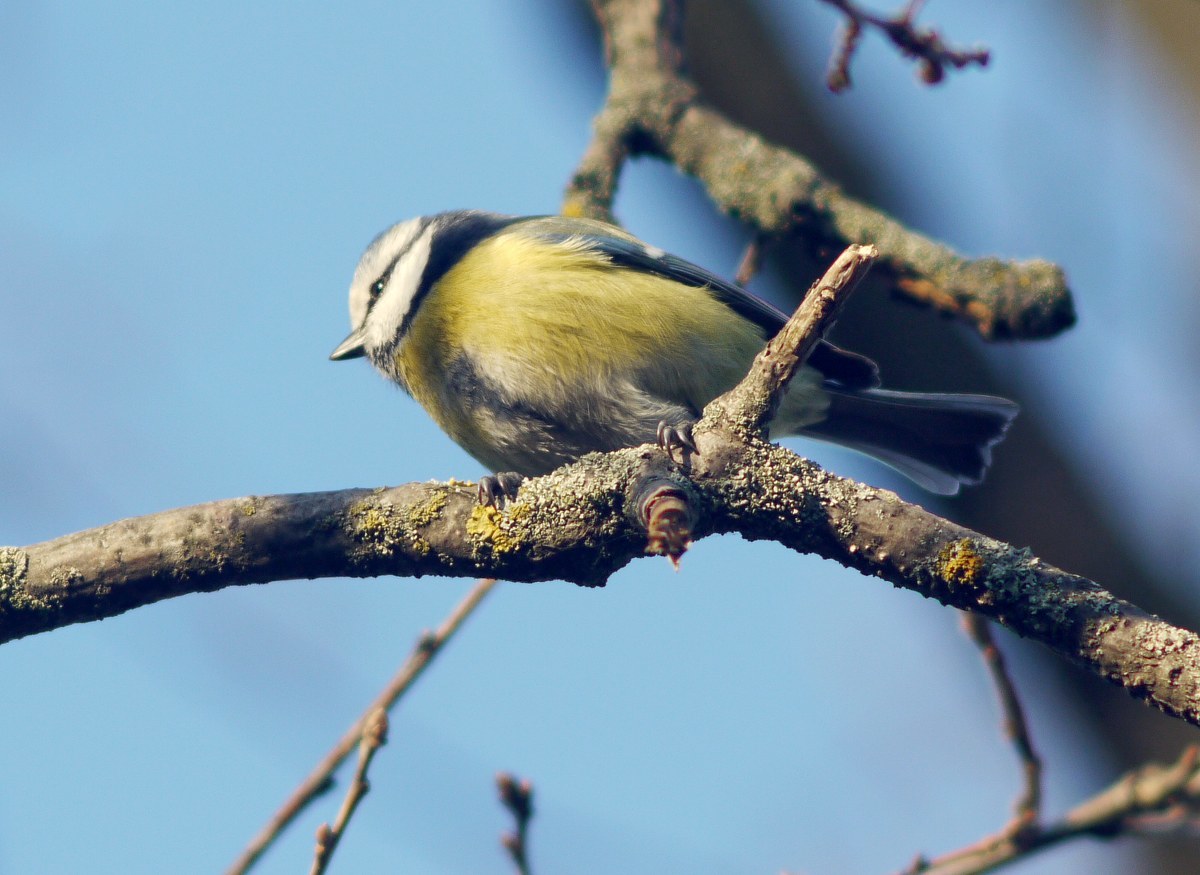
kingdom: Animalia
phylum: Chordata
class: Aves
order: Passeriformes
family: Paridae
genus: Cyanistes
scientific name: Cyanistes caeruleus
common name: Eurasian blue tit
